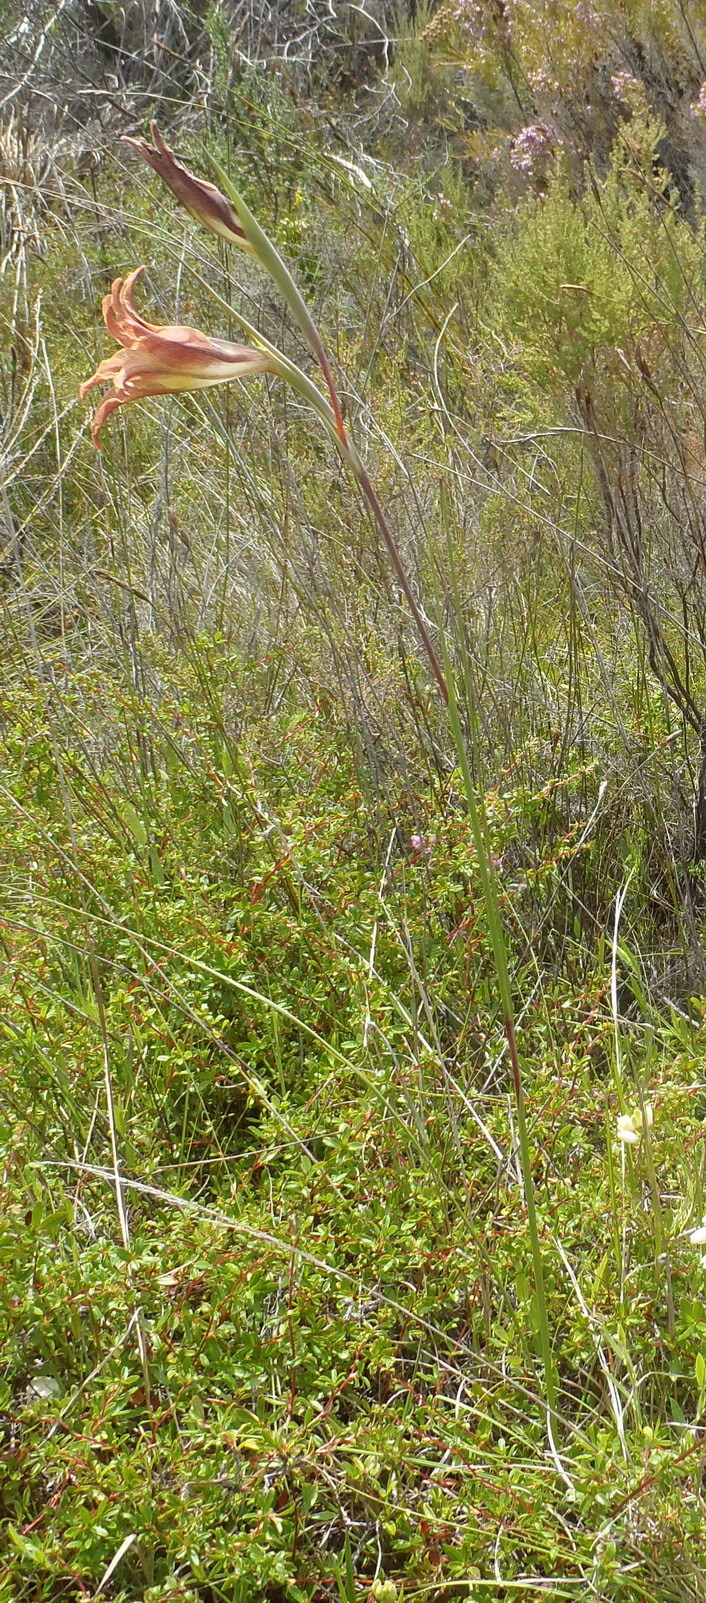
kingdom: Plantae
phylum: Tracheophyta
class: Liliopsida
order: Asparagales
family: Iridaceae
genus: Gladiolus
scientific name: Gladiolus liliaceus
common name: Large brown afrikaner
